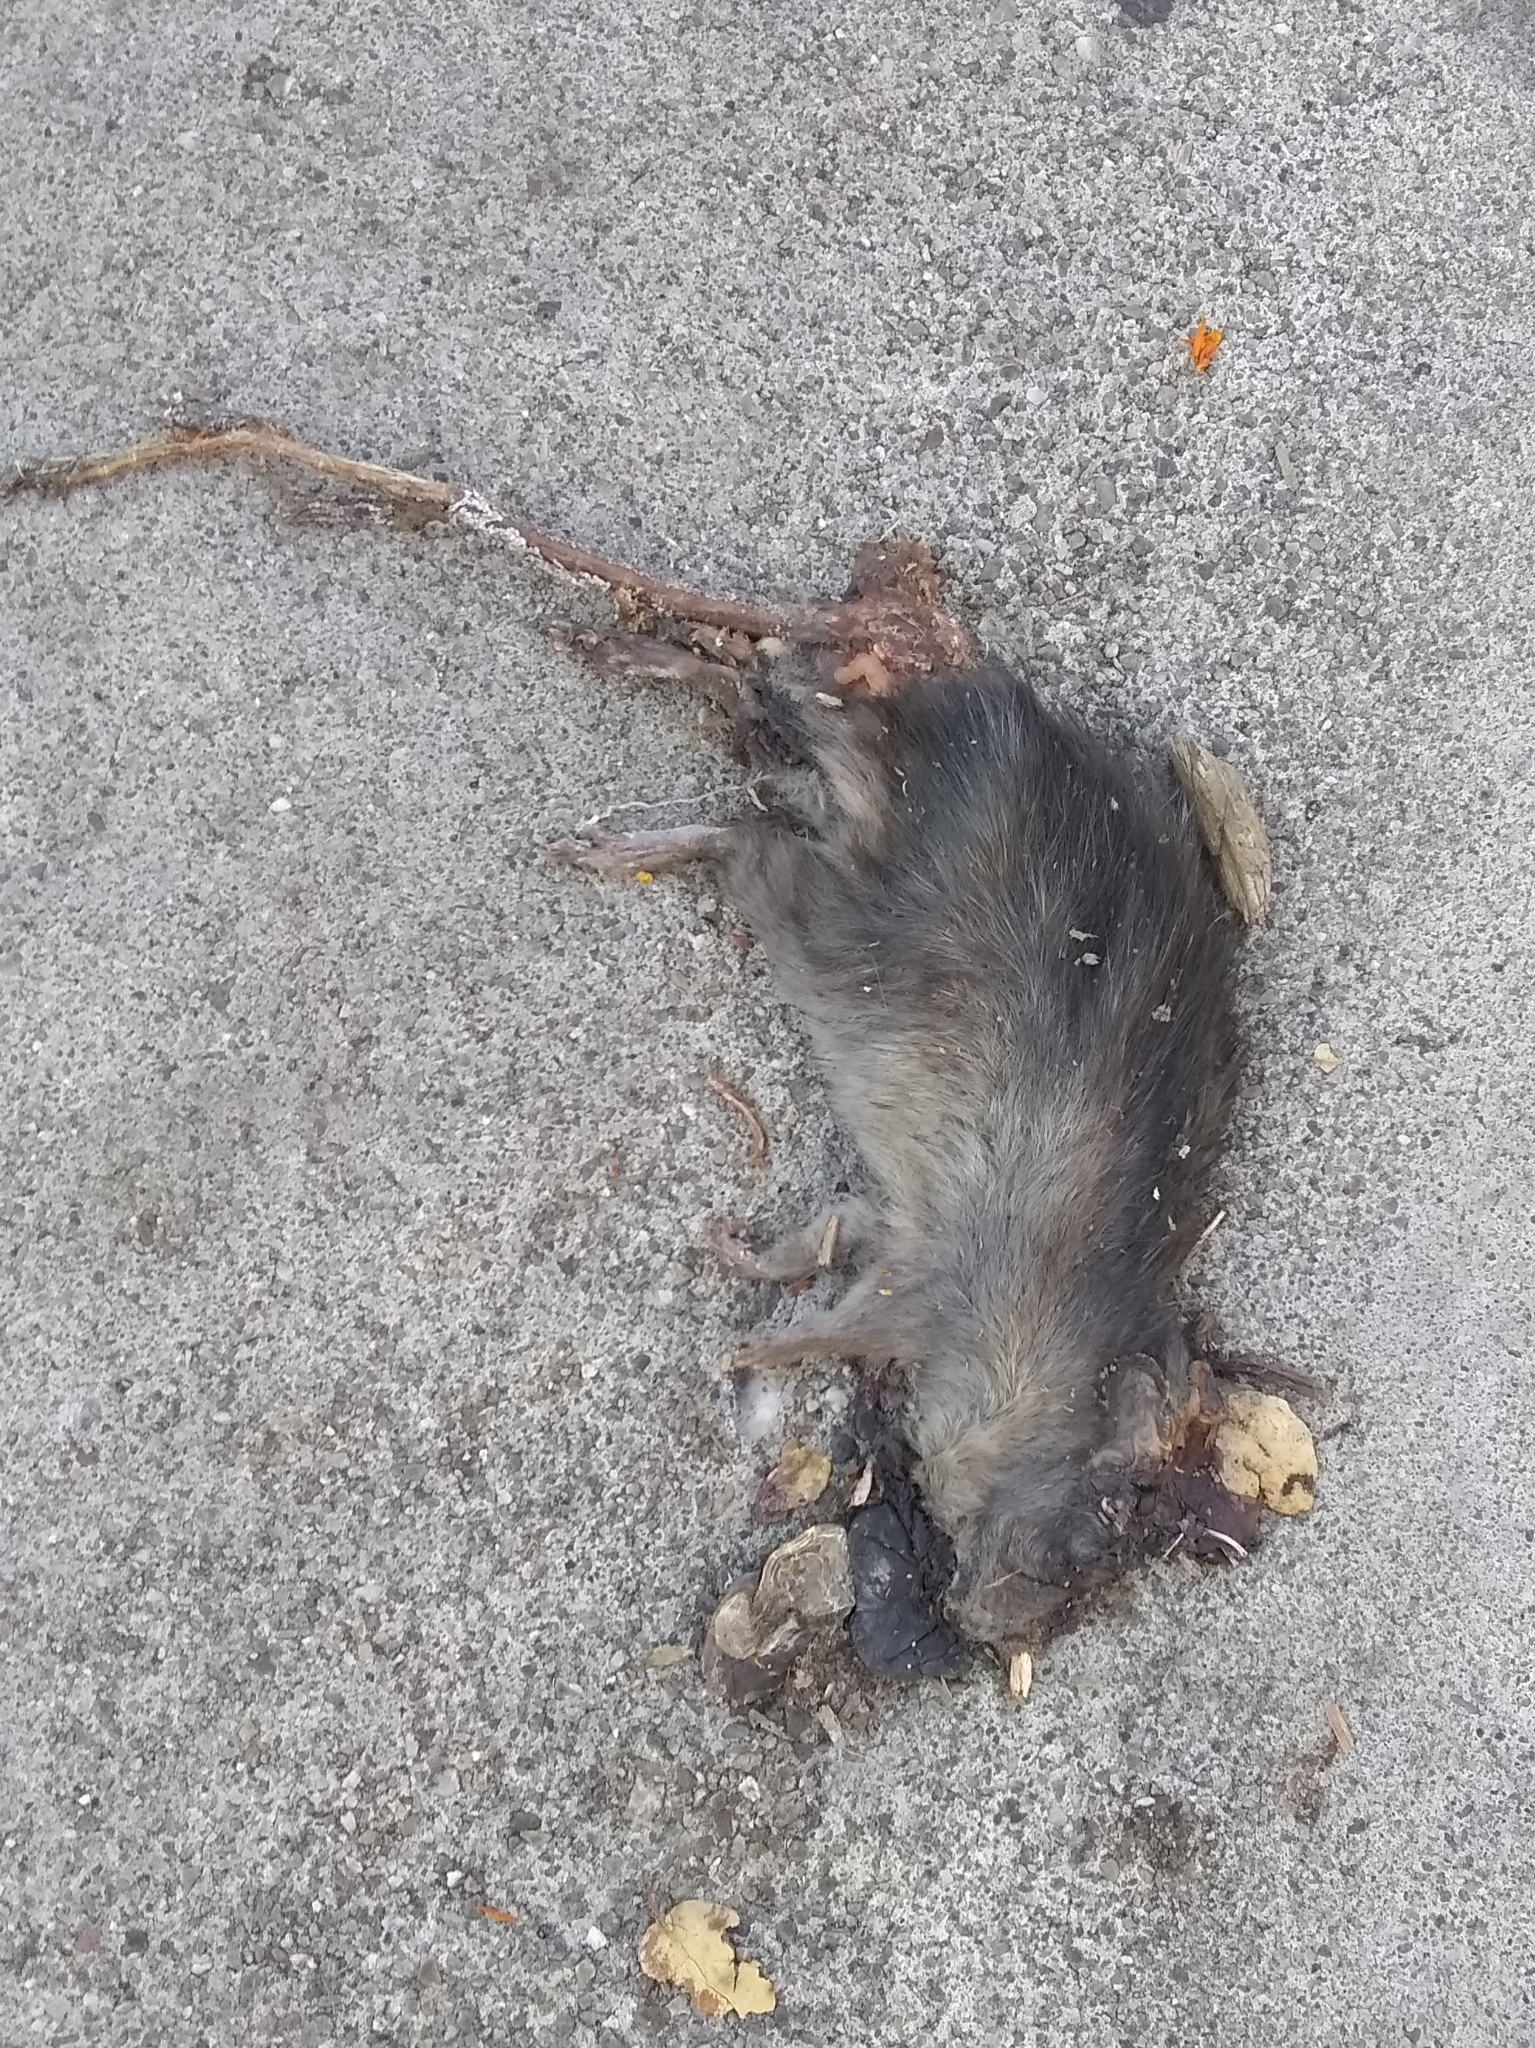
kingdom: Animalia
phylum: Chordata
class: Mammalia
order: Rodentia
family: Muridae
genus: Rattus
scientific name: Rattus rattus
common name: Black rat
